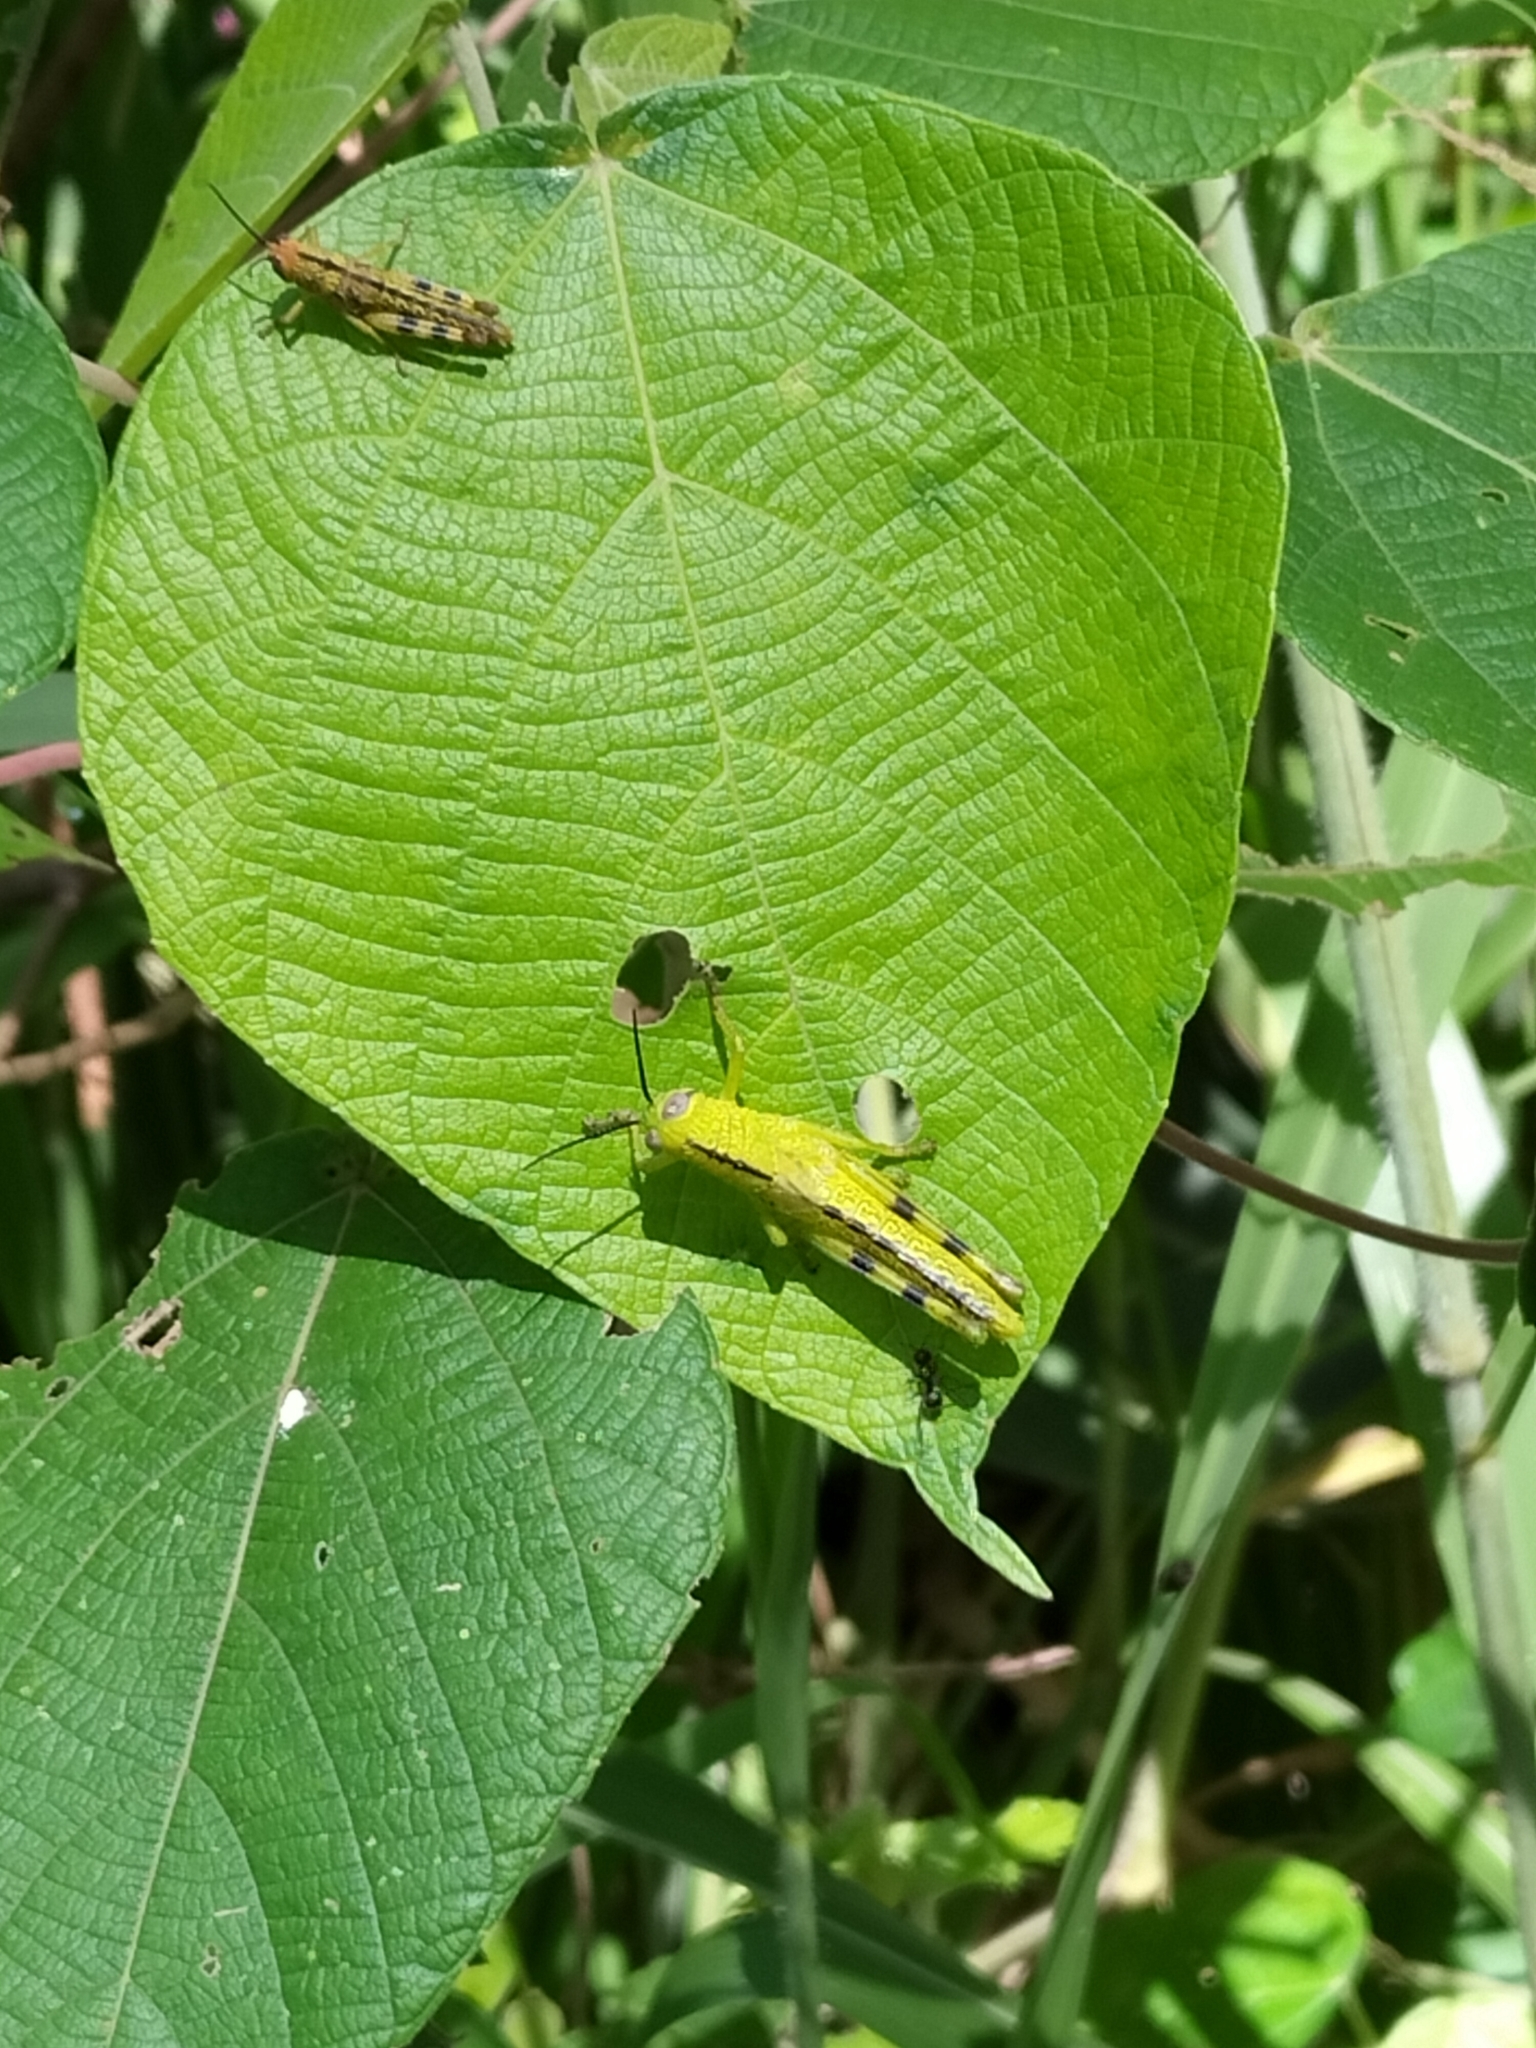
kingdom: Animalia
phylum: Arthropoda
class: Insecta
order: Orthoptera
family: Acrididae
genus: Valanga
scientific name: Valanga irregularis
